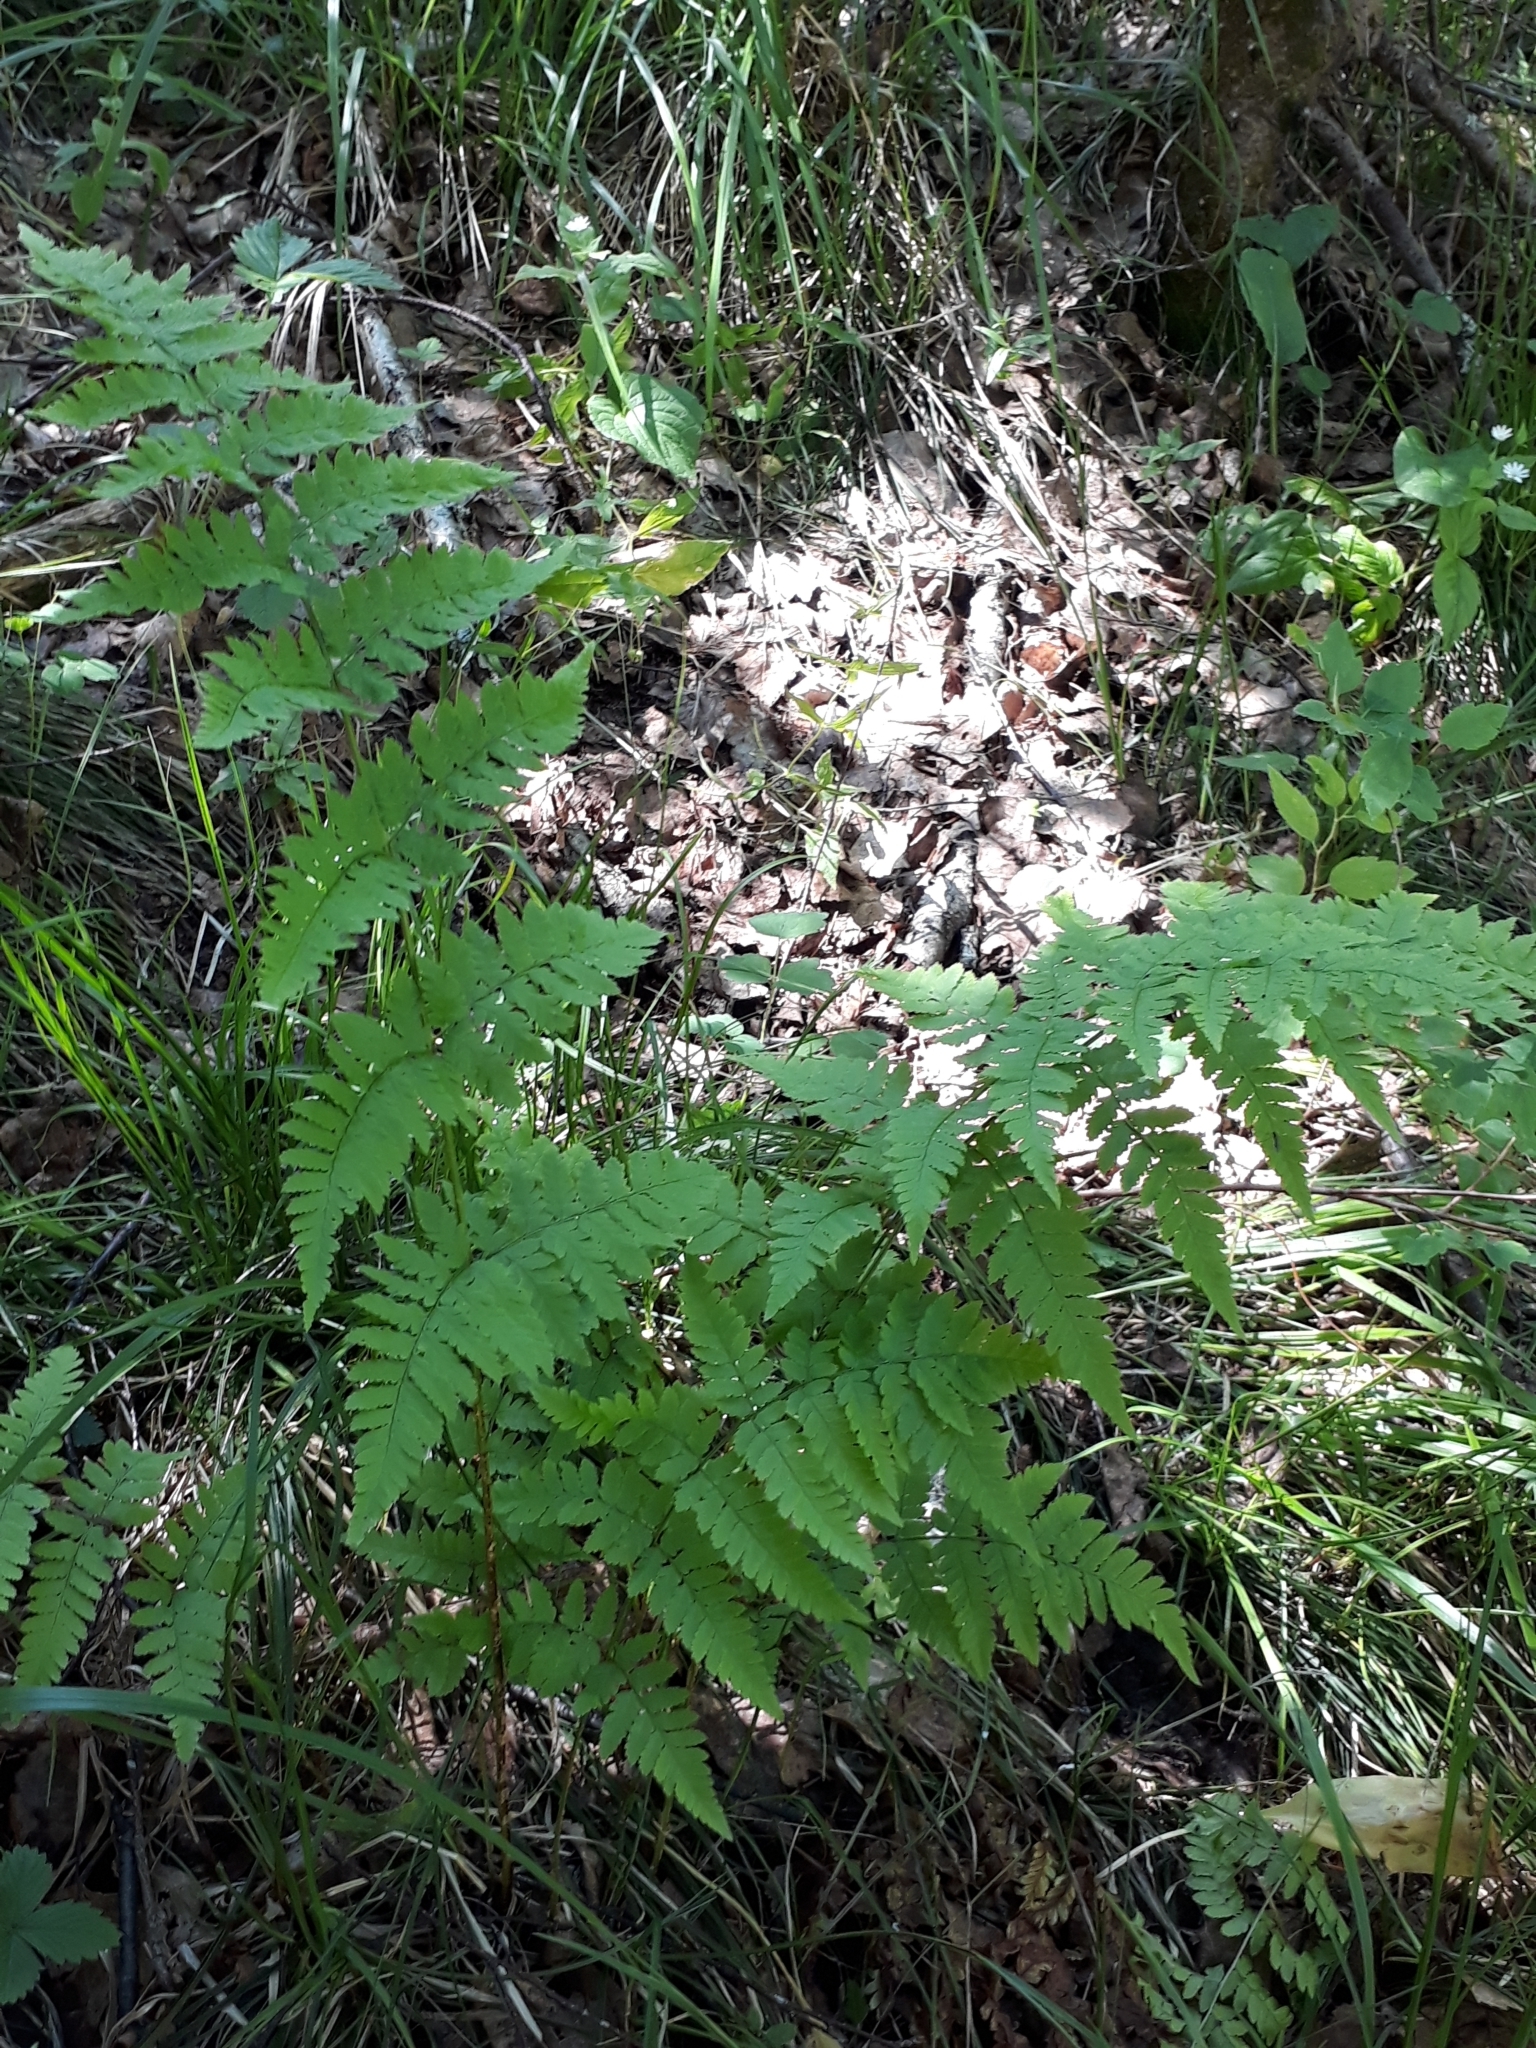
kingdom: Plantae
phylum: Tracheophyta
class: Polypodiopsida
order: Polypodiales
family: Dryopteridaceae
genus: Dryopteris
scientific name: Dryopteris carthusiana
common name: Narrow buckler-fern
